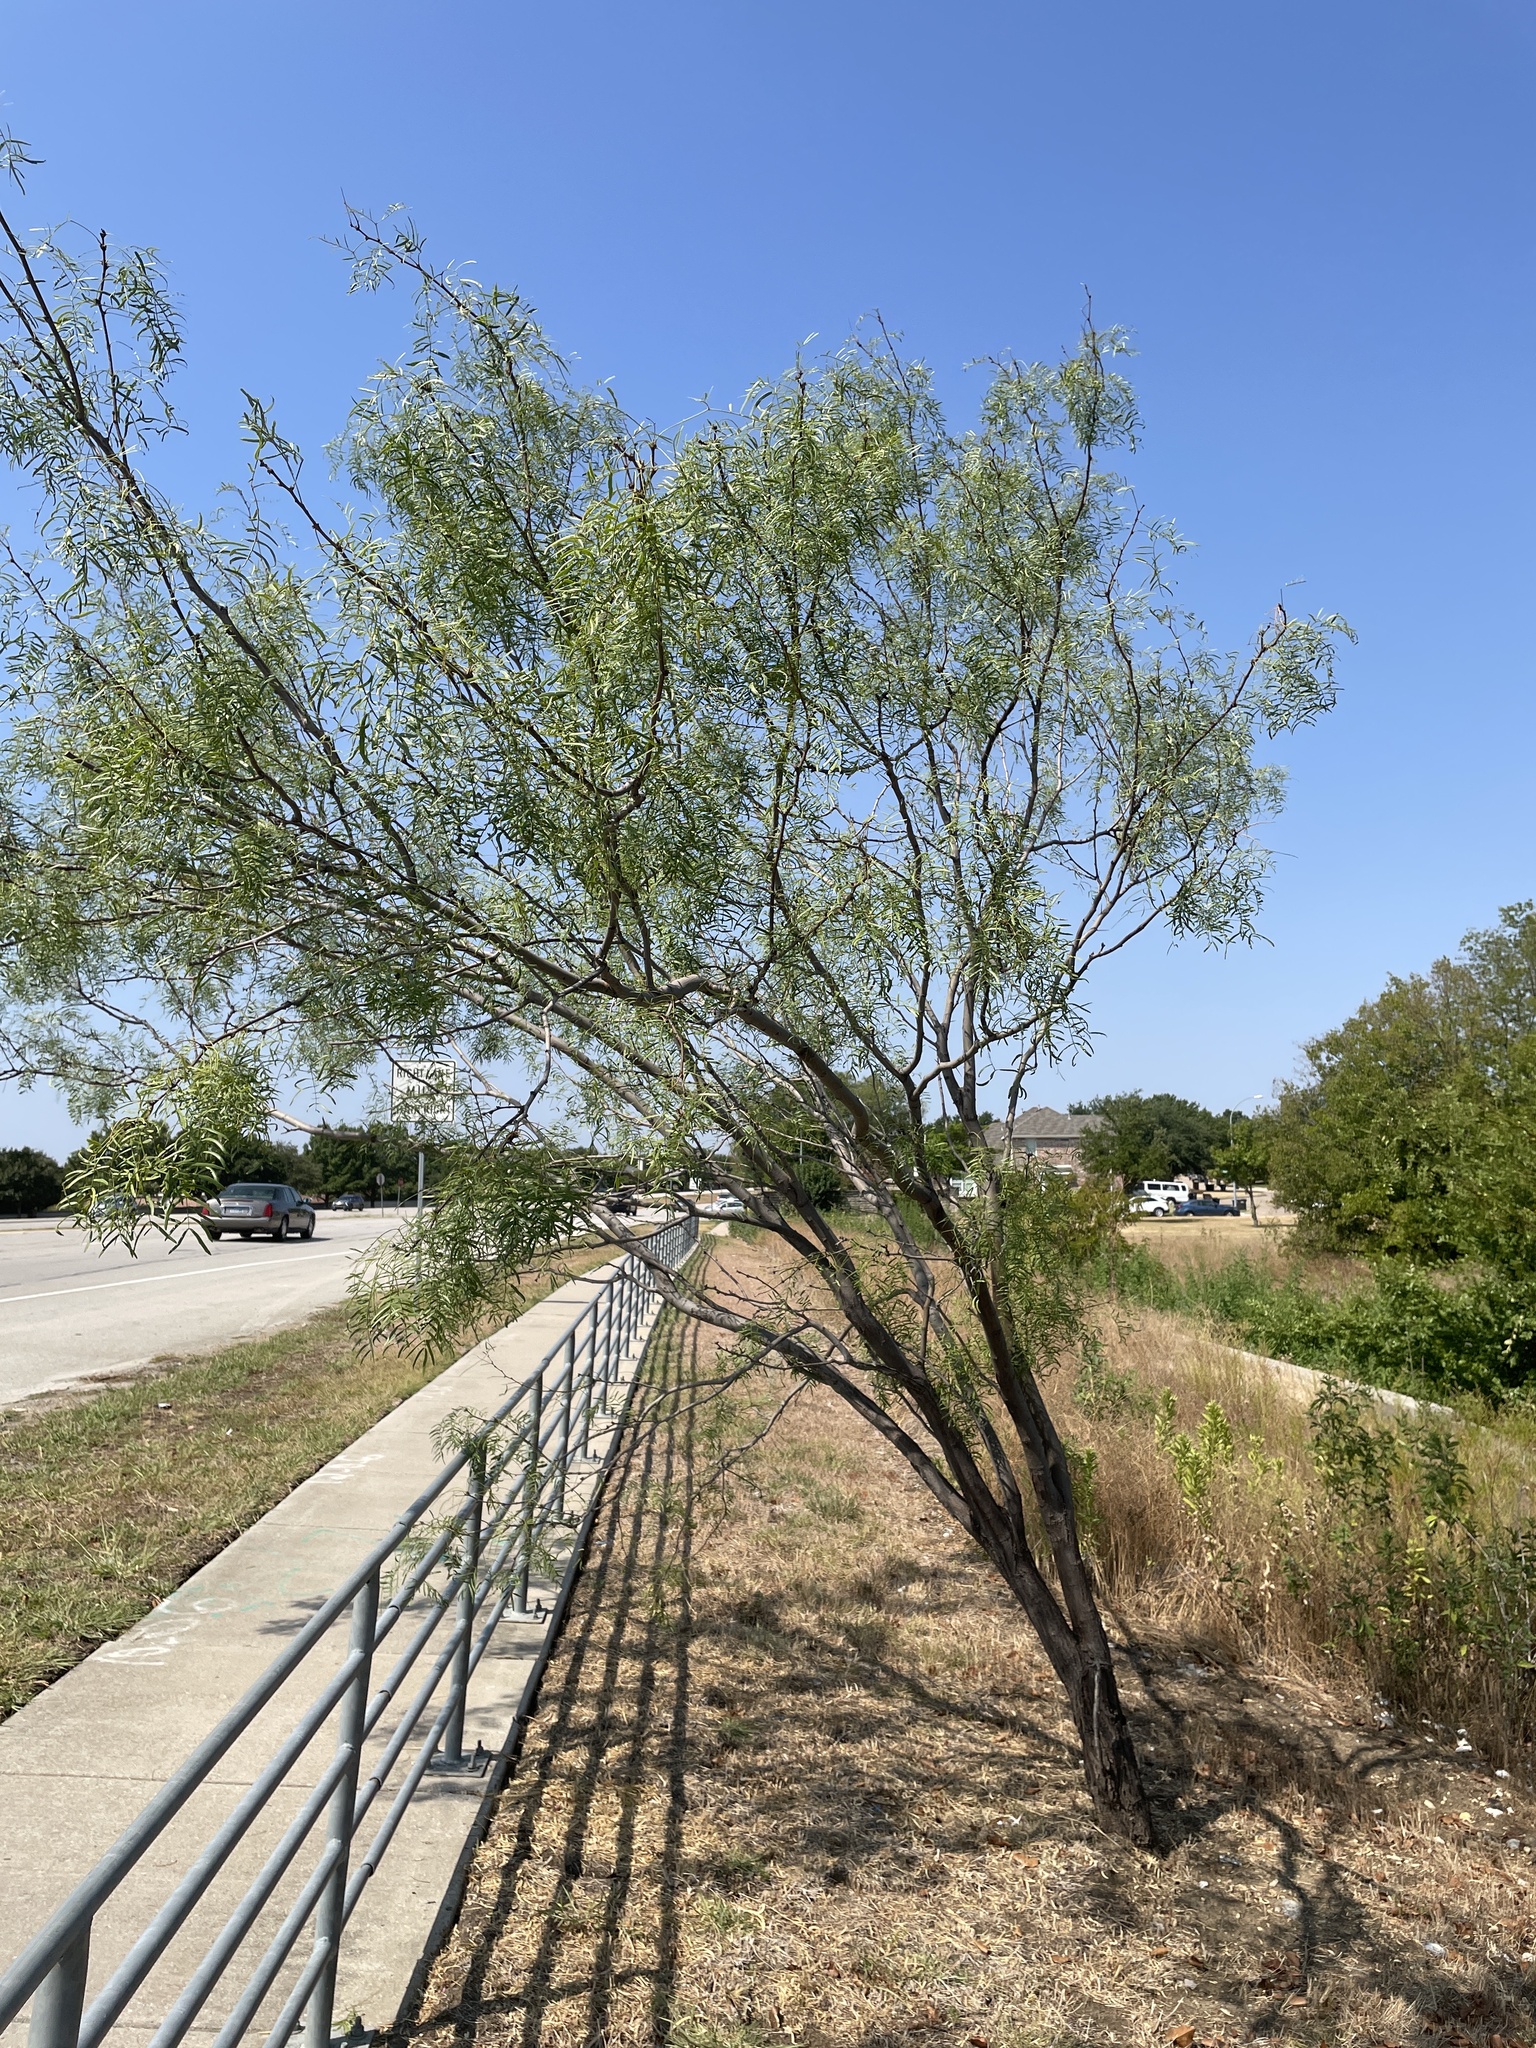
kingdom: Plantae
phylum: Tracheophyta
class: Magnoliopsida
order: Fabales
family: Fabaceae
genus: Prosopis
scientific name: Prosopis glandulosa
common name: Honey mesquite
